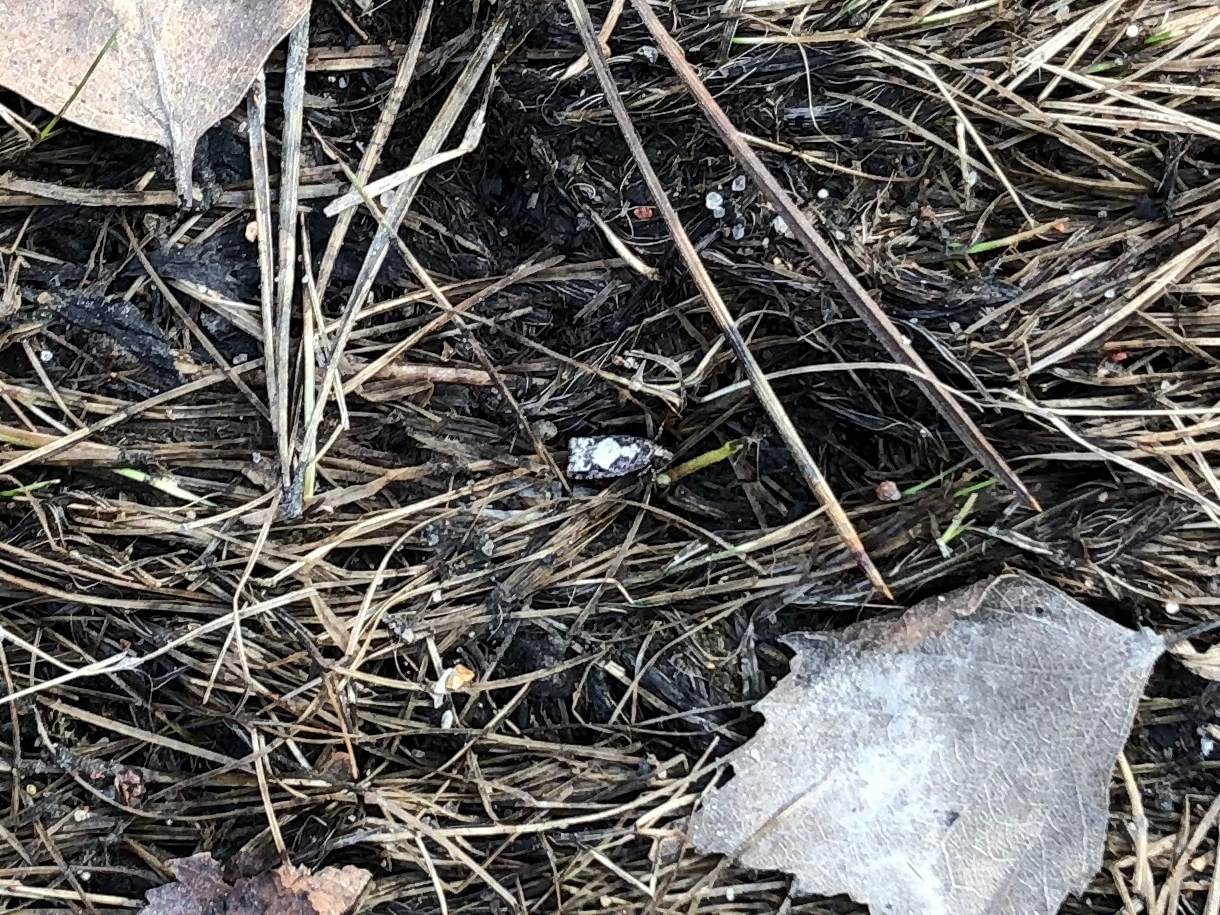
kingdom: Animalia
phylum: Arthropoda
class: Insecta
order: Lepidoptera
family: Tortricidae
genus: Epinotia
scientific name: Epinotia crenana
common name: Highland bell
